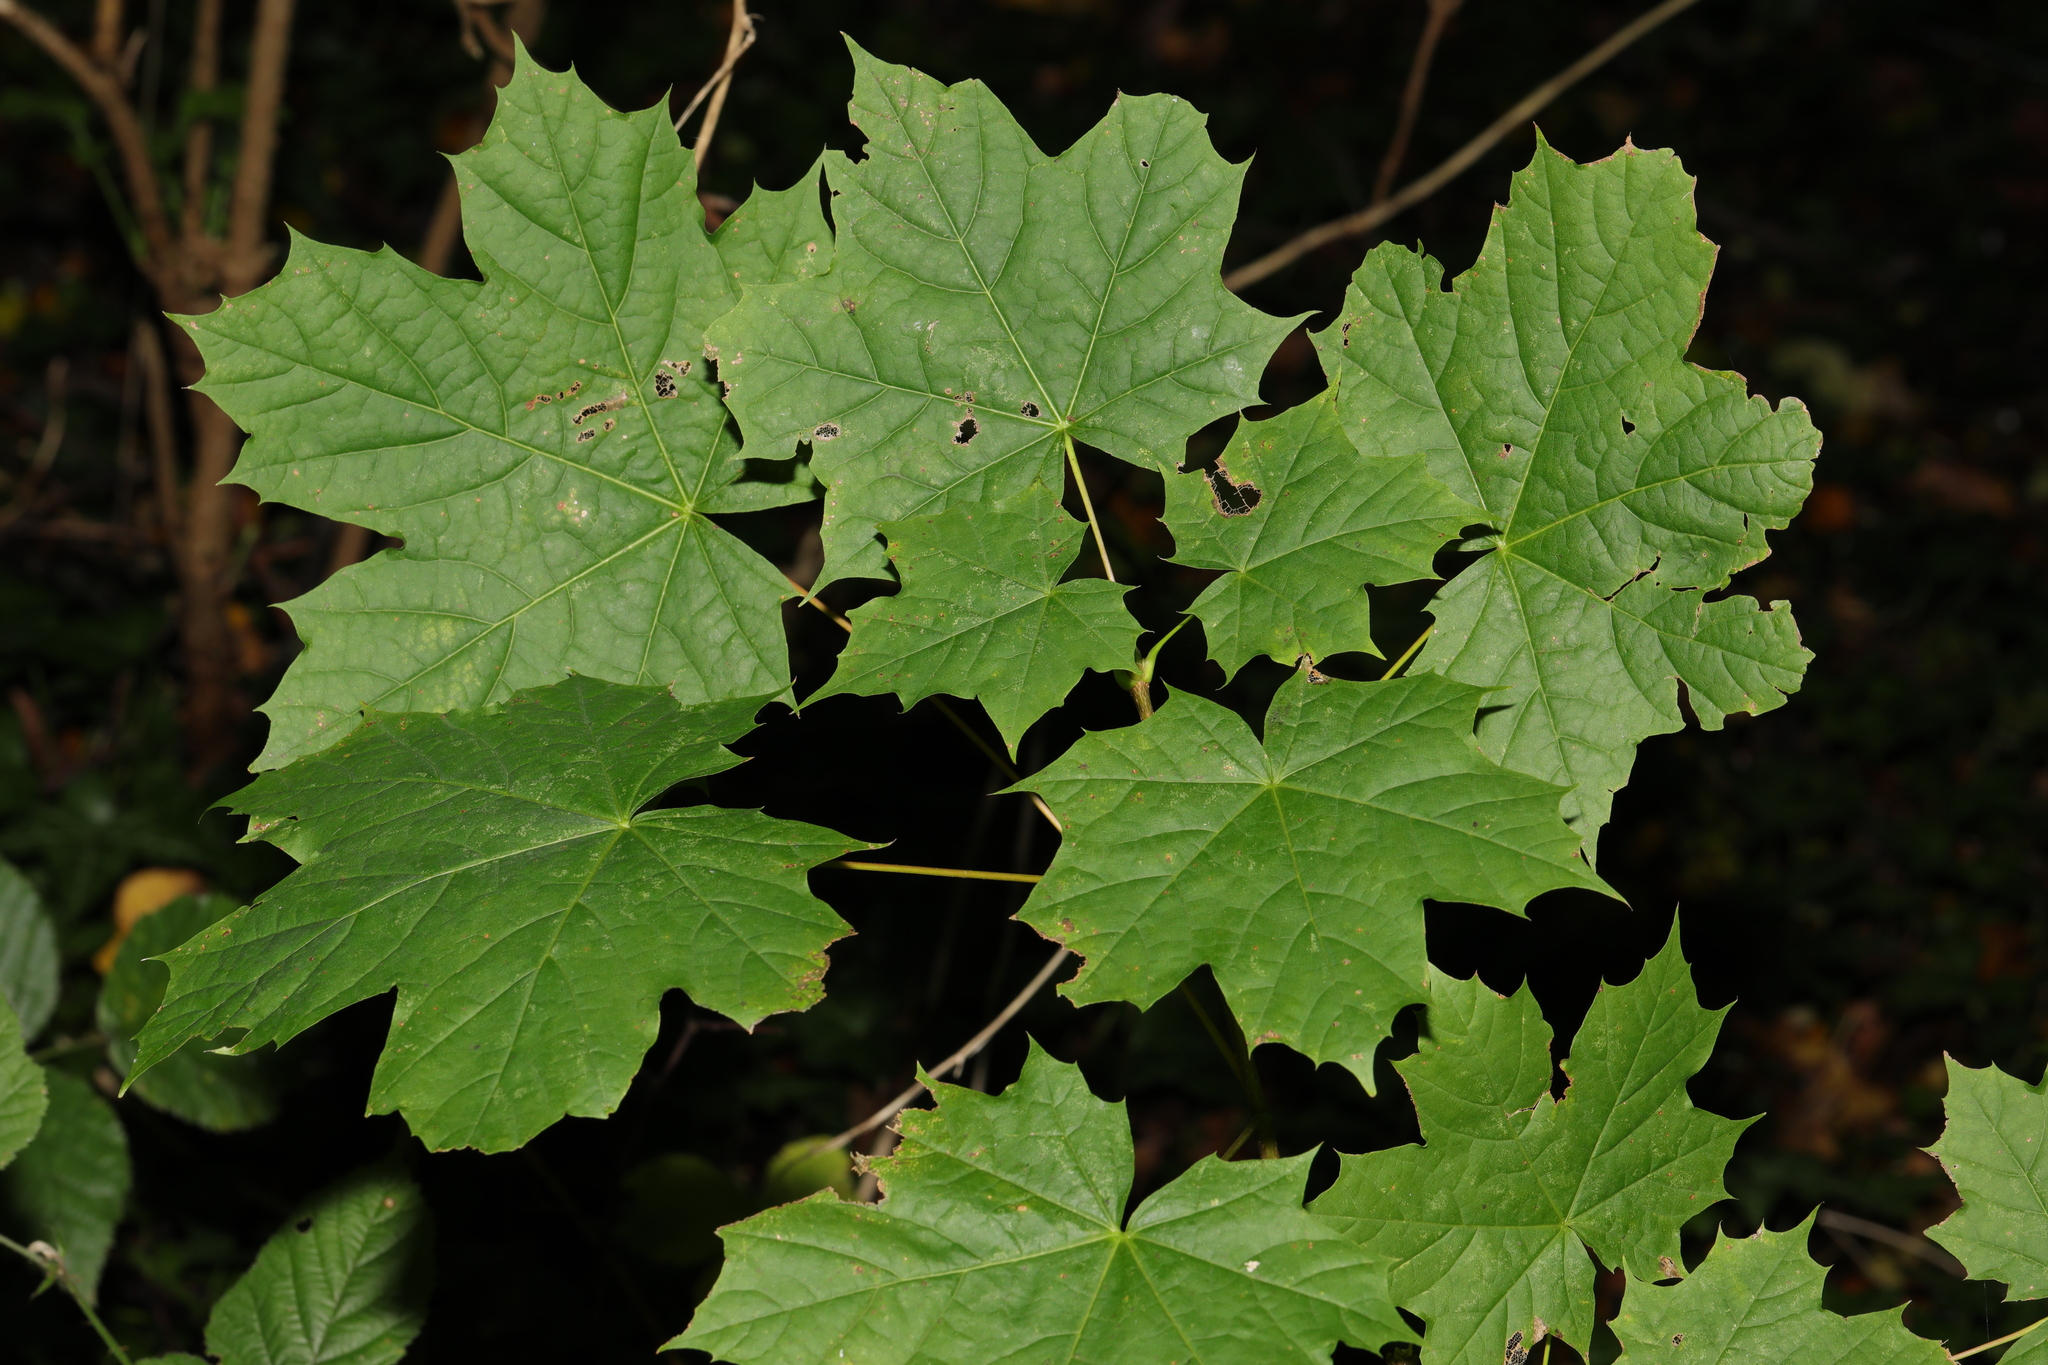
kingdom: Plantae
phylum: Tracheophyta
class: Magnoliopsida
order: Sapindales
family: Sapindaceae
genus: Acer
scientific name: Acer platanoides
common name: Norway maple
